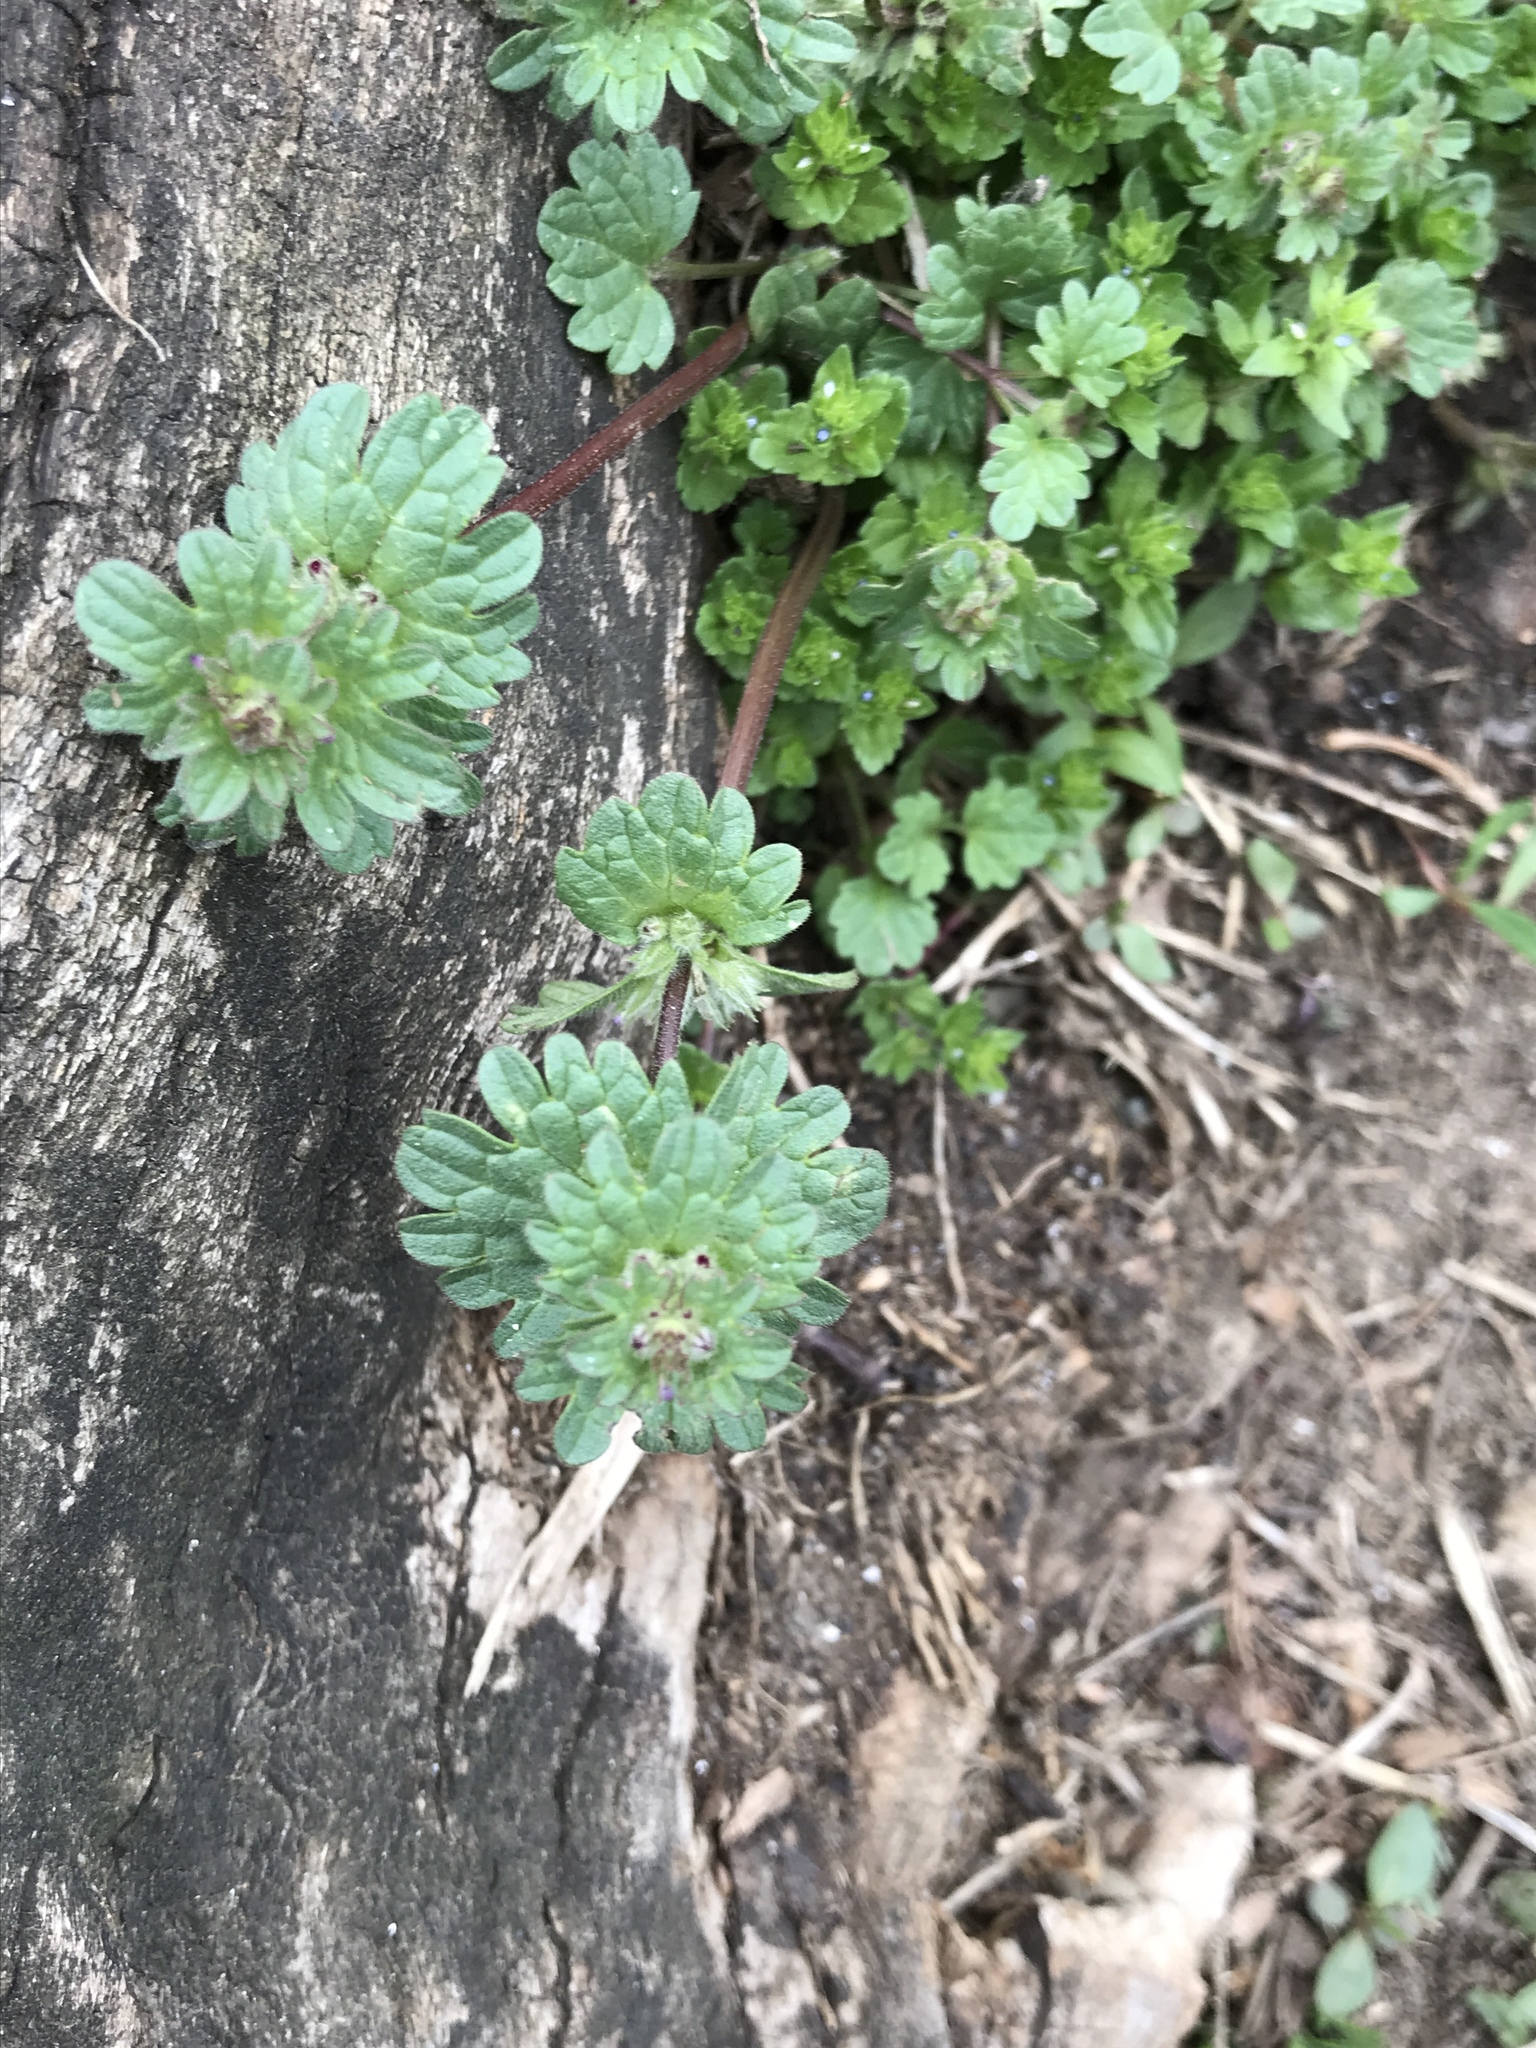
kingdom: Plantae
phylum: Tracheophyta
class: Magnoliopsida
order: Lamiales
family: Lamiaceae
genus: Lamium
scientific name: Lamium amplexicaule
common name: Henbit dead-nettle
